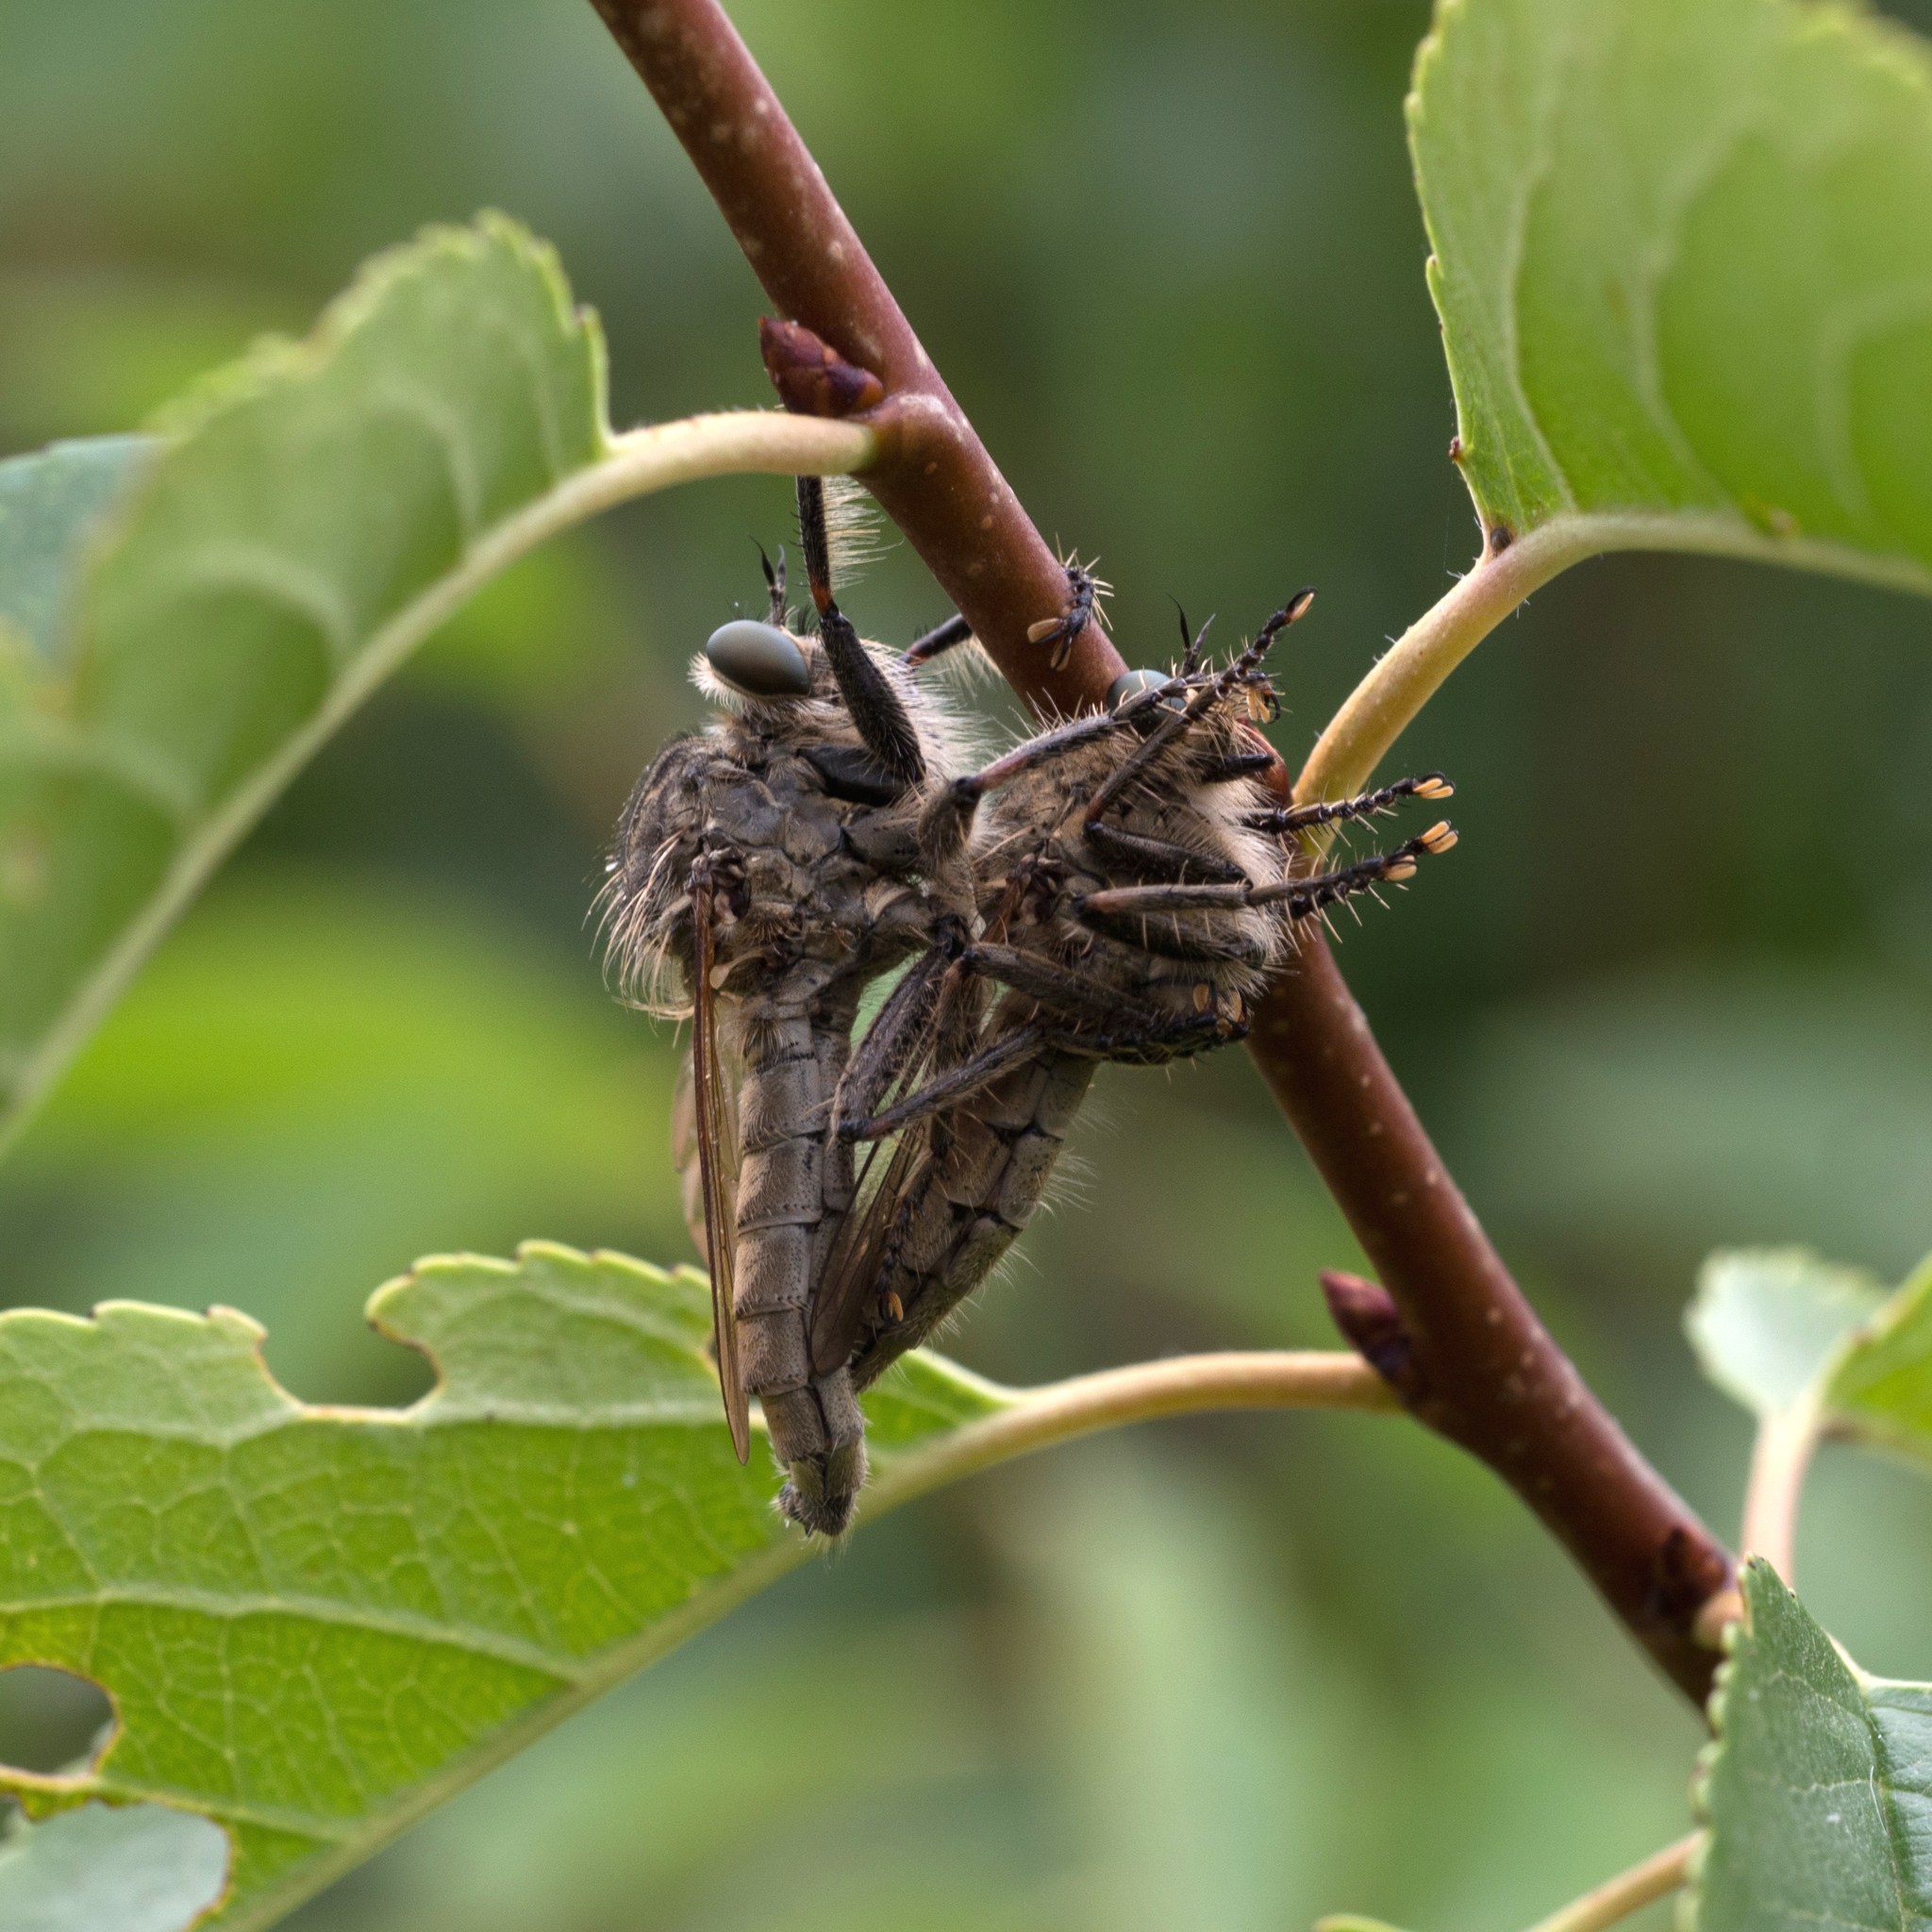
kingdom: Animalia
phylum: Arthropoda
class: Insecta
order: Diptera
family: Asilidae
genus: Machimus
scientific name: Machimus rusticus
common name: Downland robberfly
